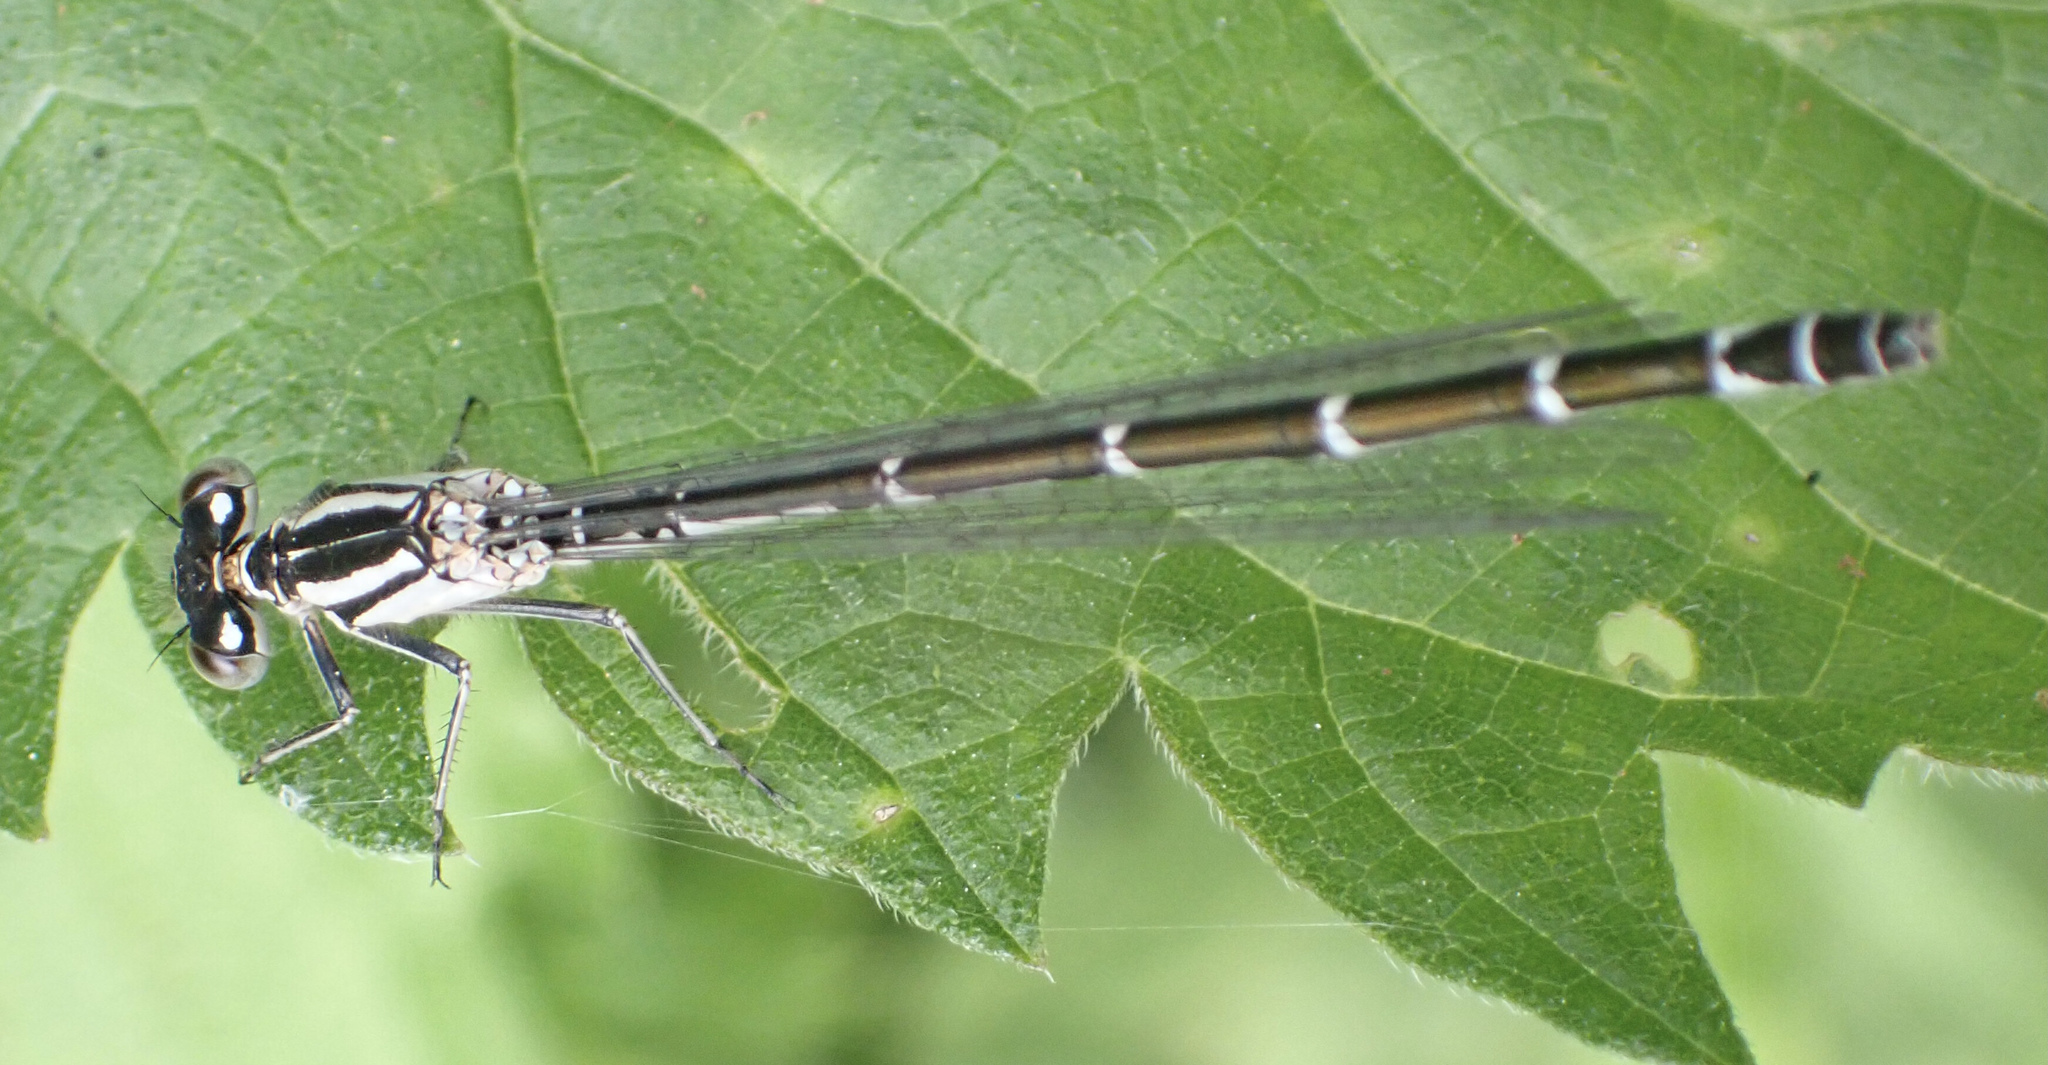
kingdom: Animalia
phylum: Arthropoda
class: Insecta
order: Odonata
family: Coenagrionidae
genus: Enallagma
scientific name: Enallagma cyathigerum
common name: Common blue damselfly
